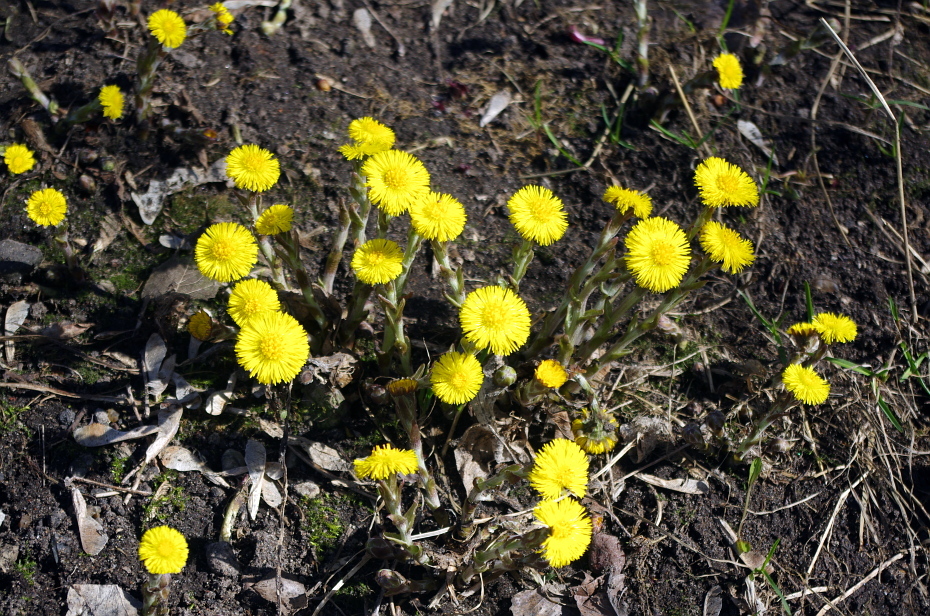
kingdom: Plantae
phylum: Tracheophyta
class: Magnoliopsida
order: Asterales
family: Asteraceae
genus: Tussilago
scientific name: Tussilago farfara
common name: Coltsfoot
